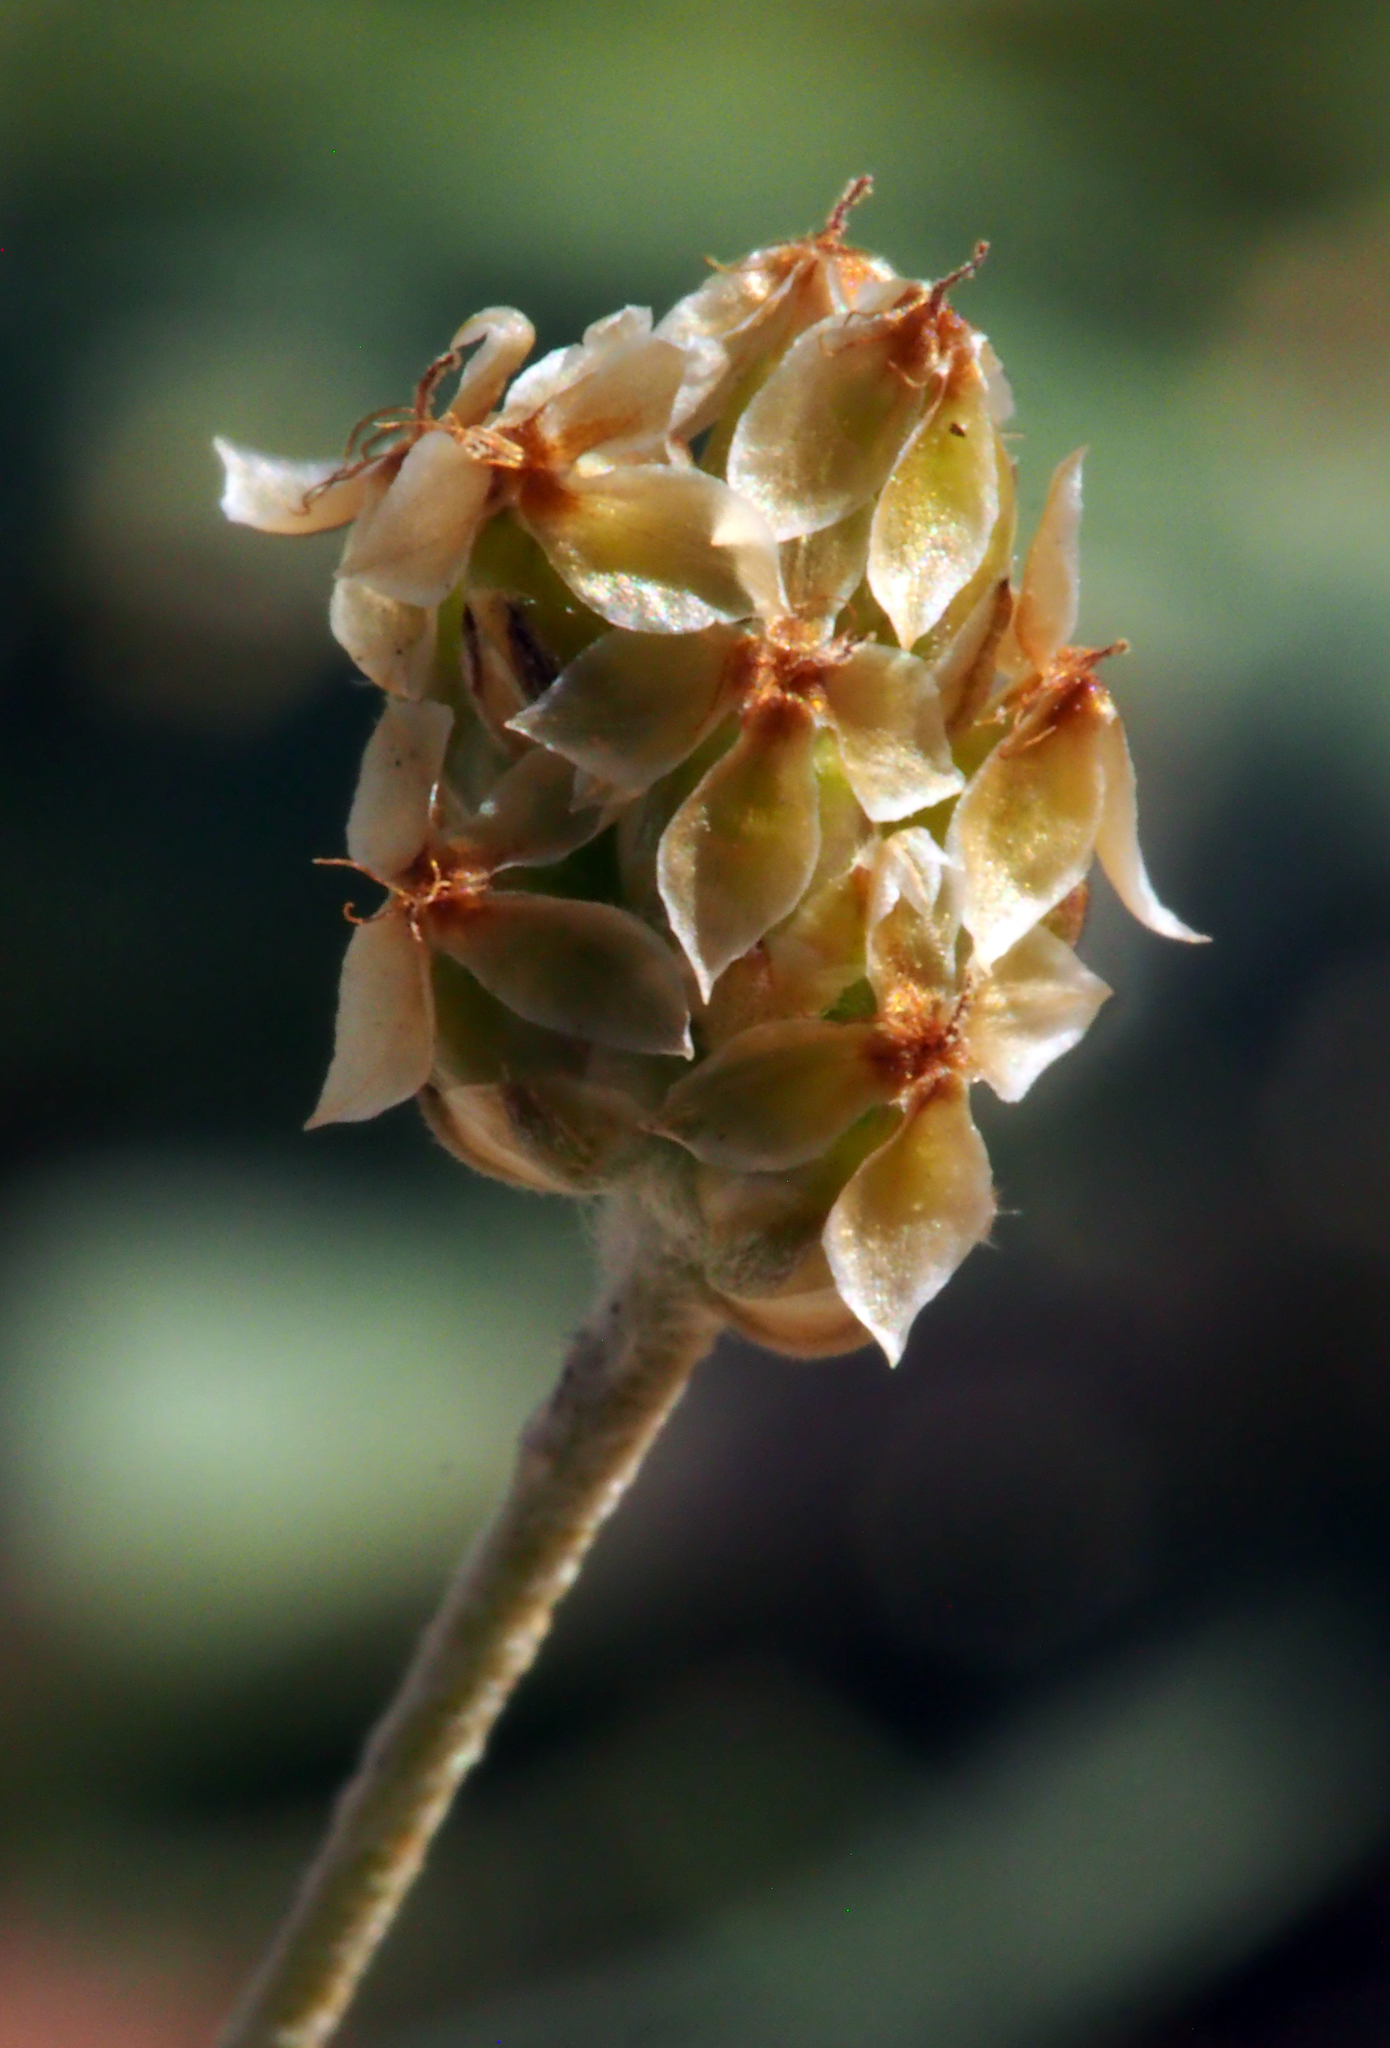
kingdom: Plantae
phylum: Tracheophyta
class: Magnoliopsida
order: Lamiales
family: Plantaginaceae
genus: Plantago
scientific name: Plantago ovata
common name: Blond plantain
